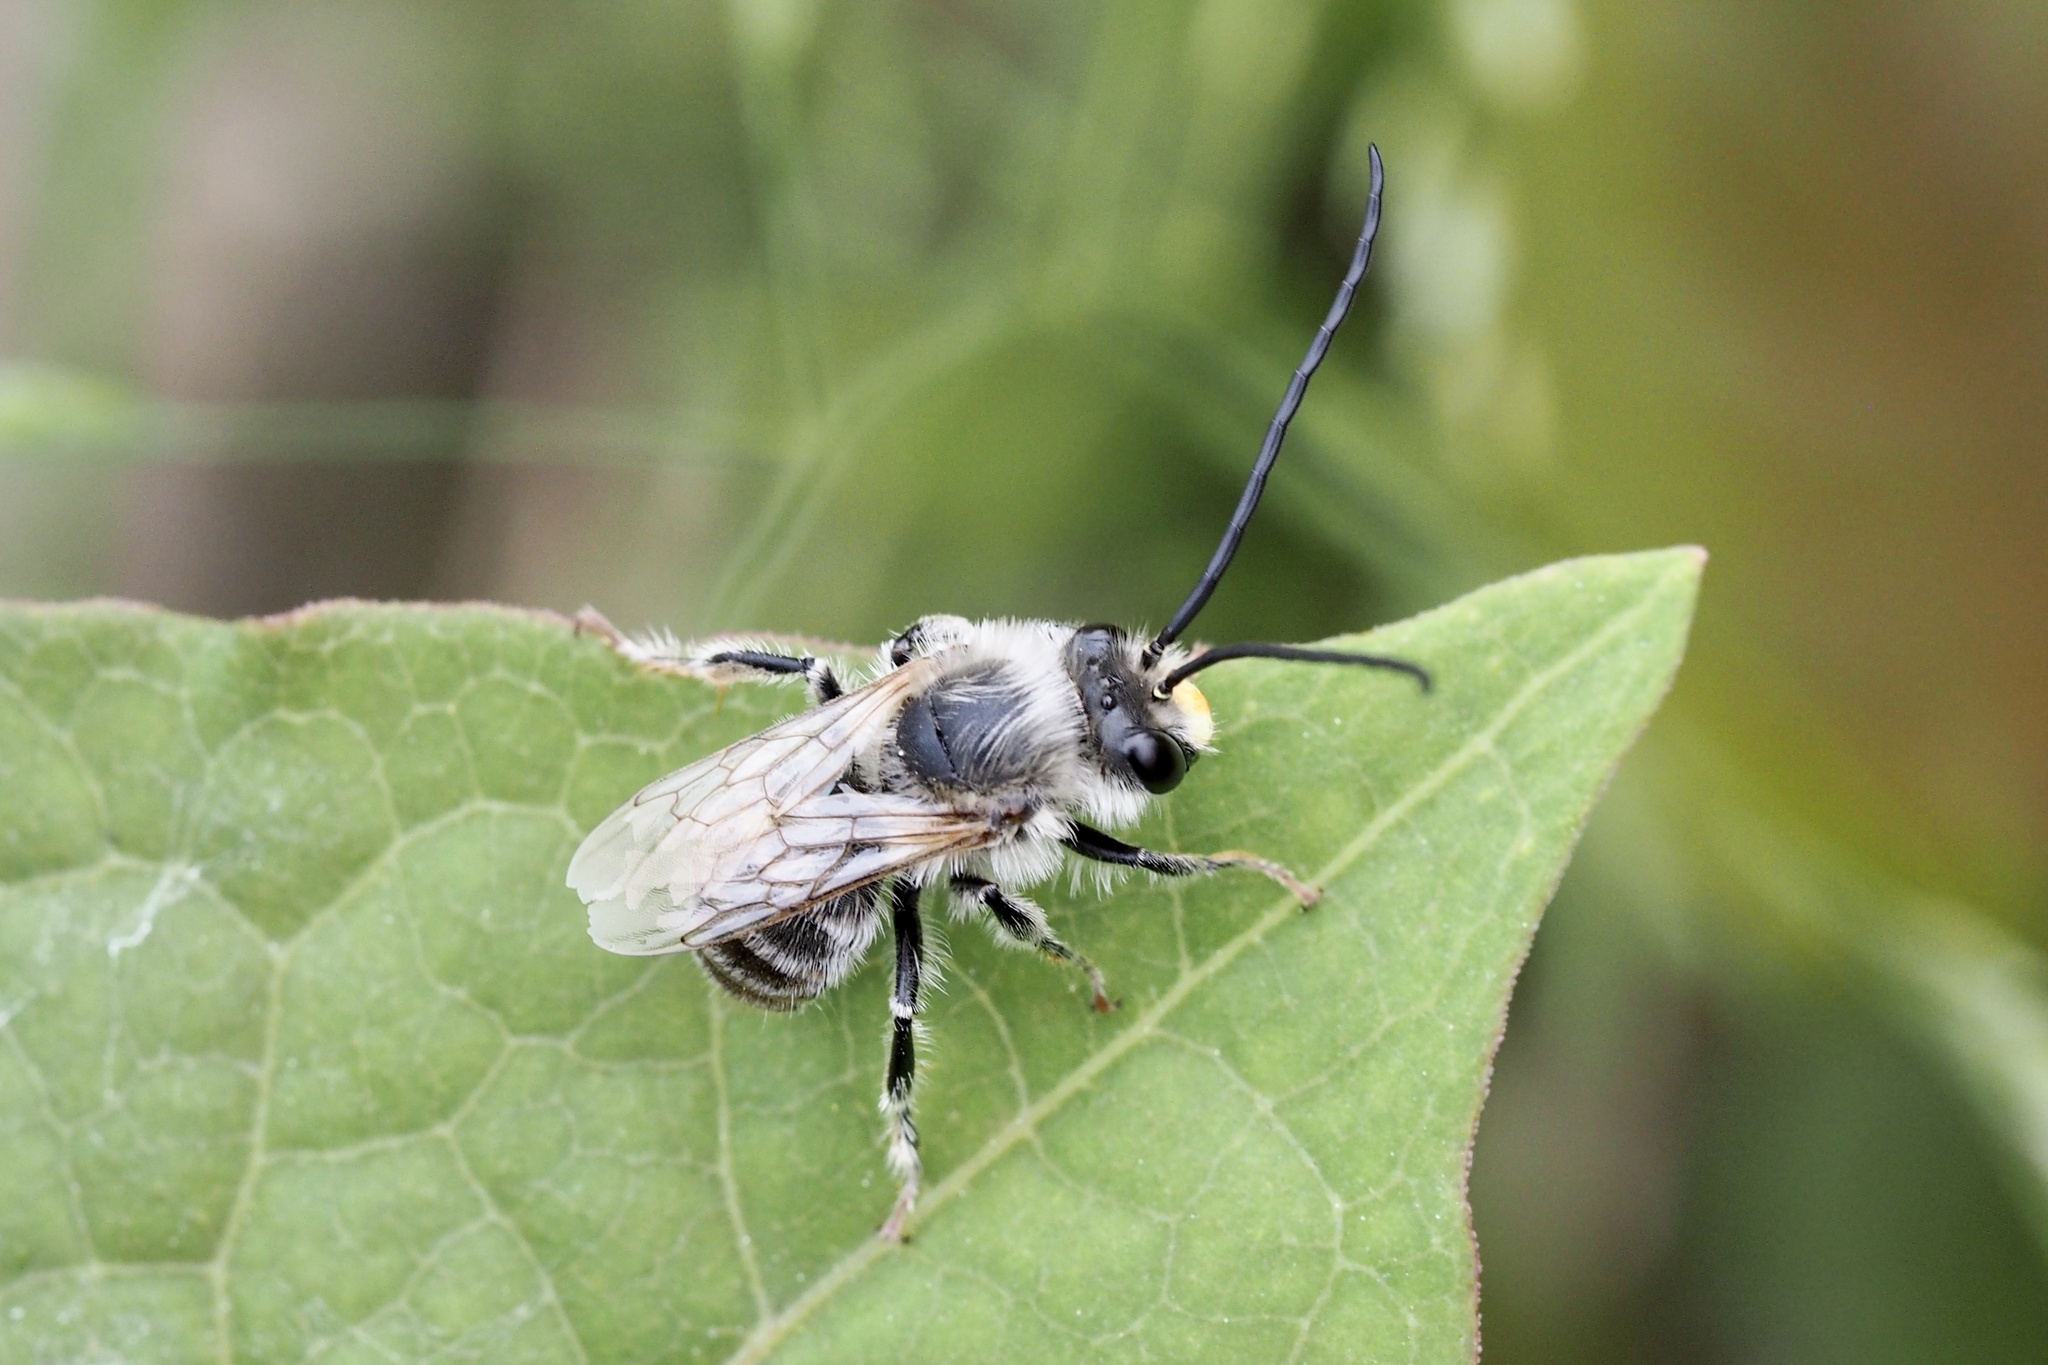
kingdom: Animalia
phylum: Arthropoda
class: Insecta
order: Hymenoptera
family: Apidae
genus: Eucera
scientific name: Eucera spurcatipes
